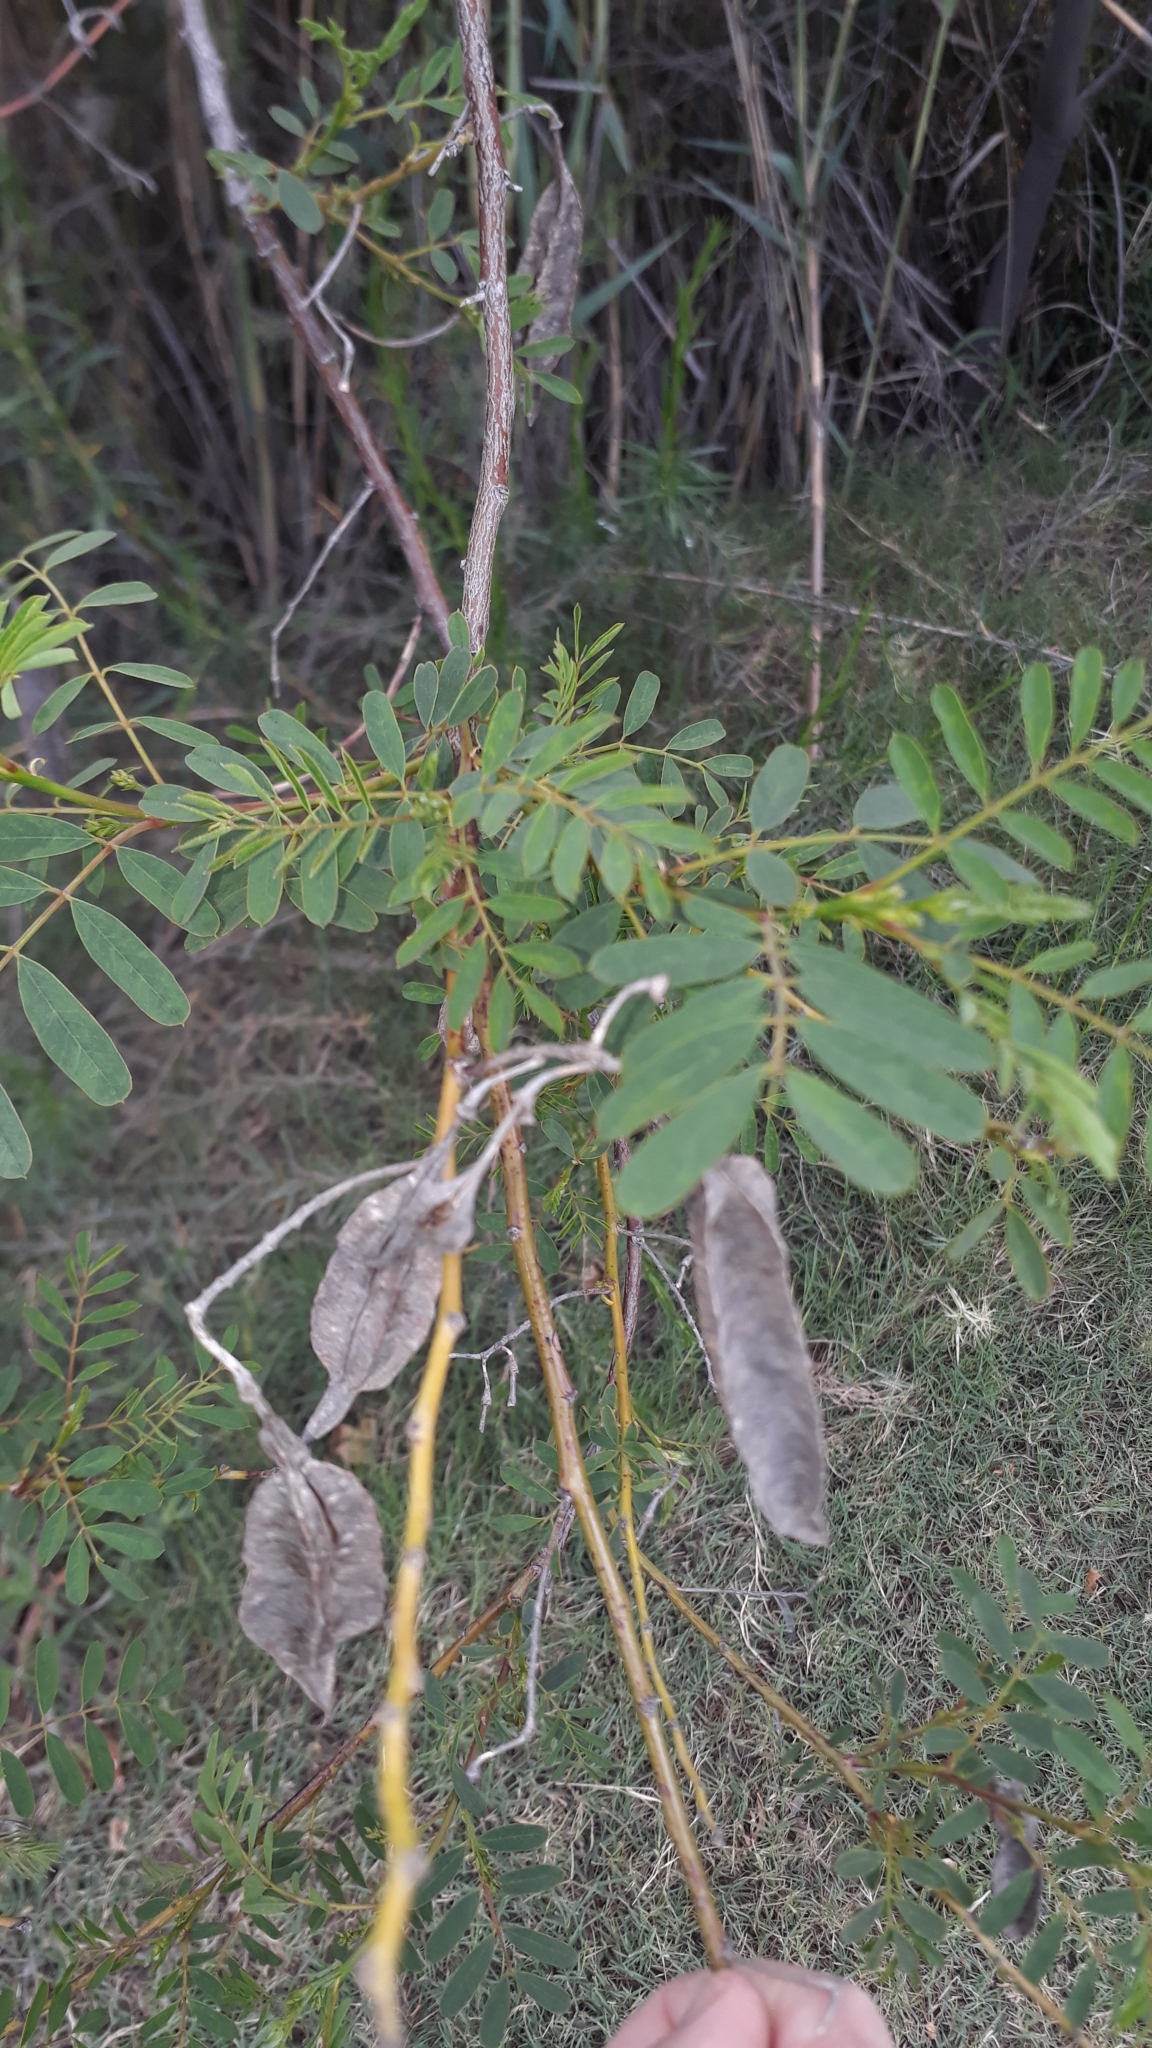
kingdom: Plantae
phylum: Tracheophyta
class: Magnoliopsida
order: Fabales
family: Fabaceae
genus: Sesbania
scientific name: Sesbania punicea
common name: Rattlebox
